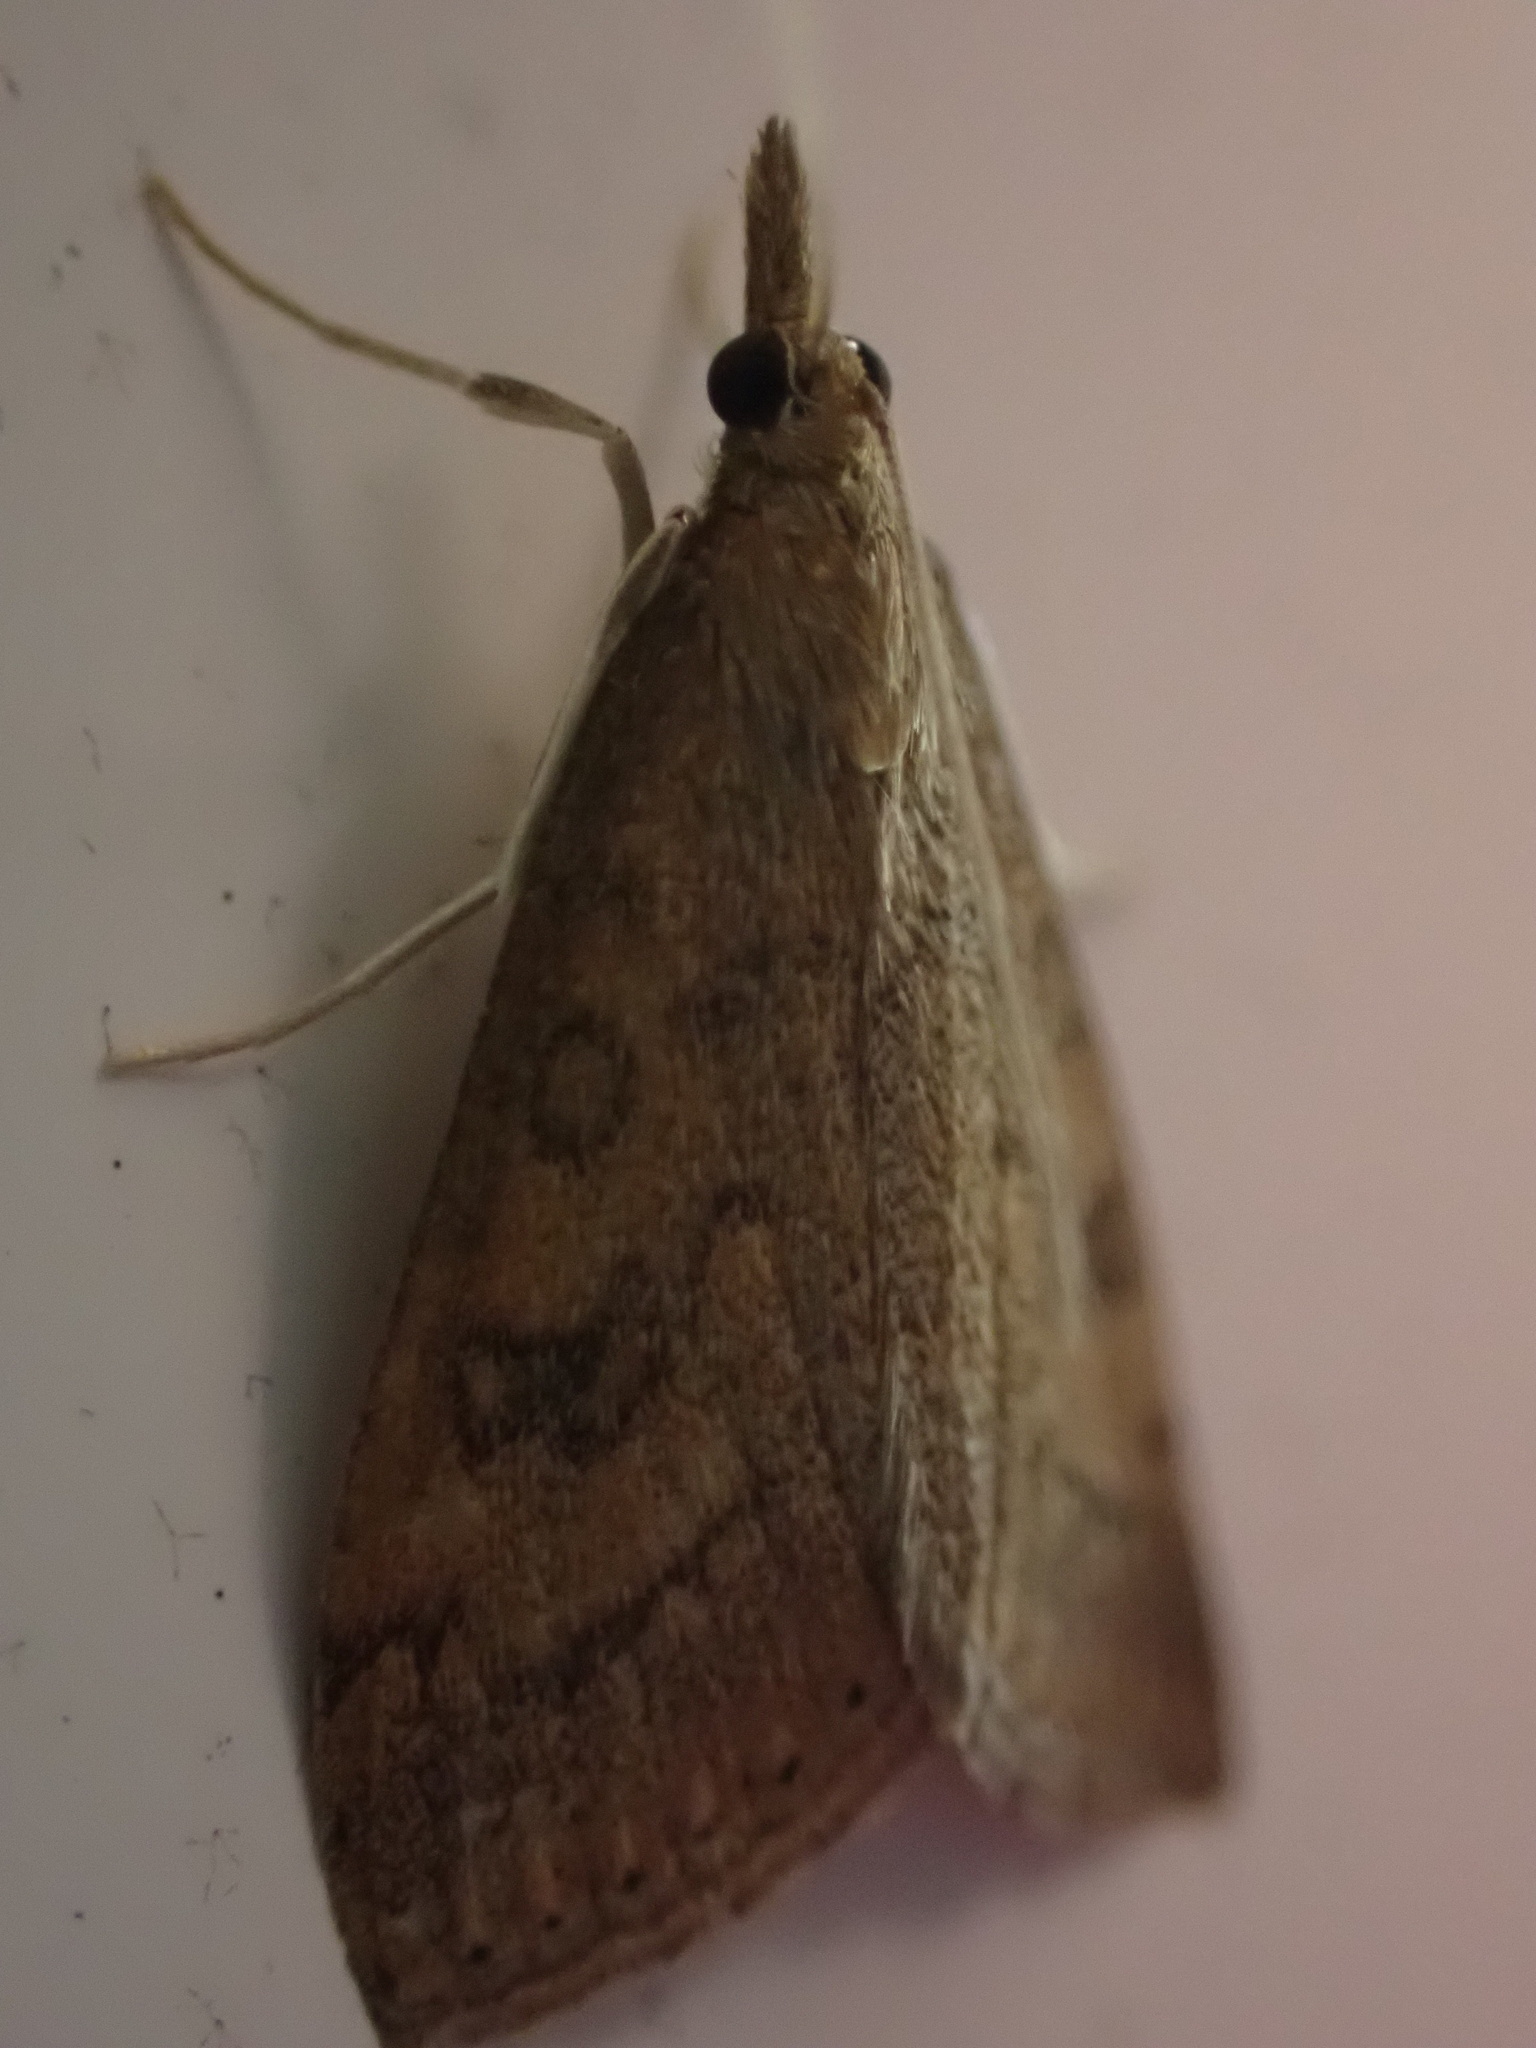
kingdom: Animalia
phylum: Arthropoda
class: Insecta
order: Lepidoptera
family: Crambidae
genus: Udea
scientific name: Udea rubigalis
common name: Celery leaftier moth
